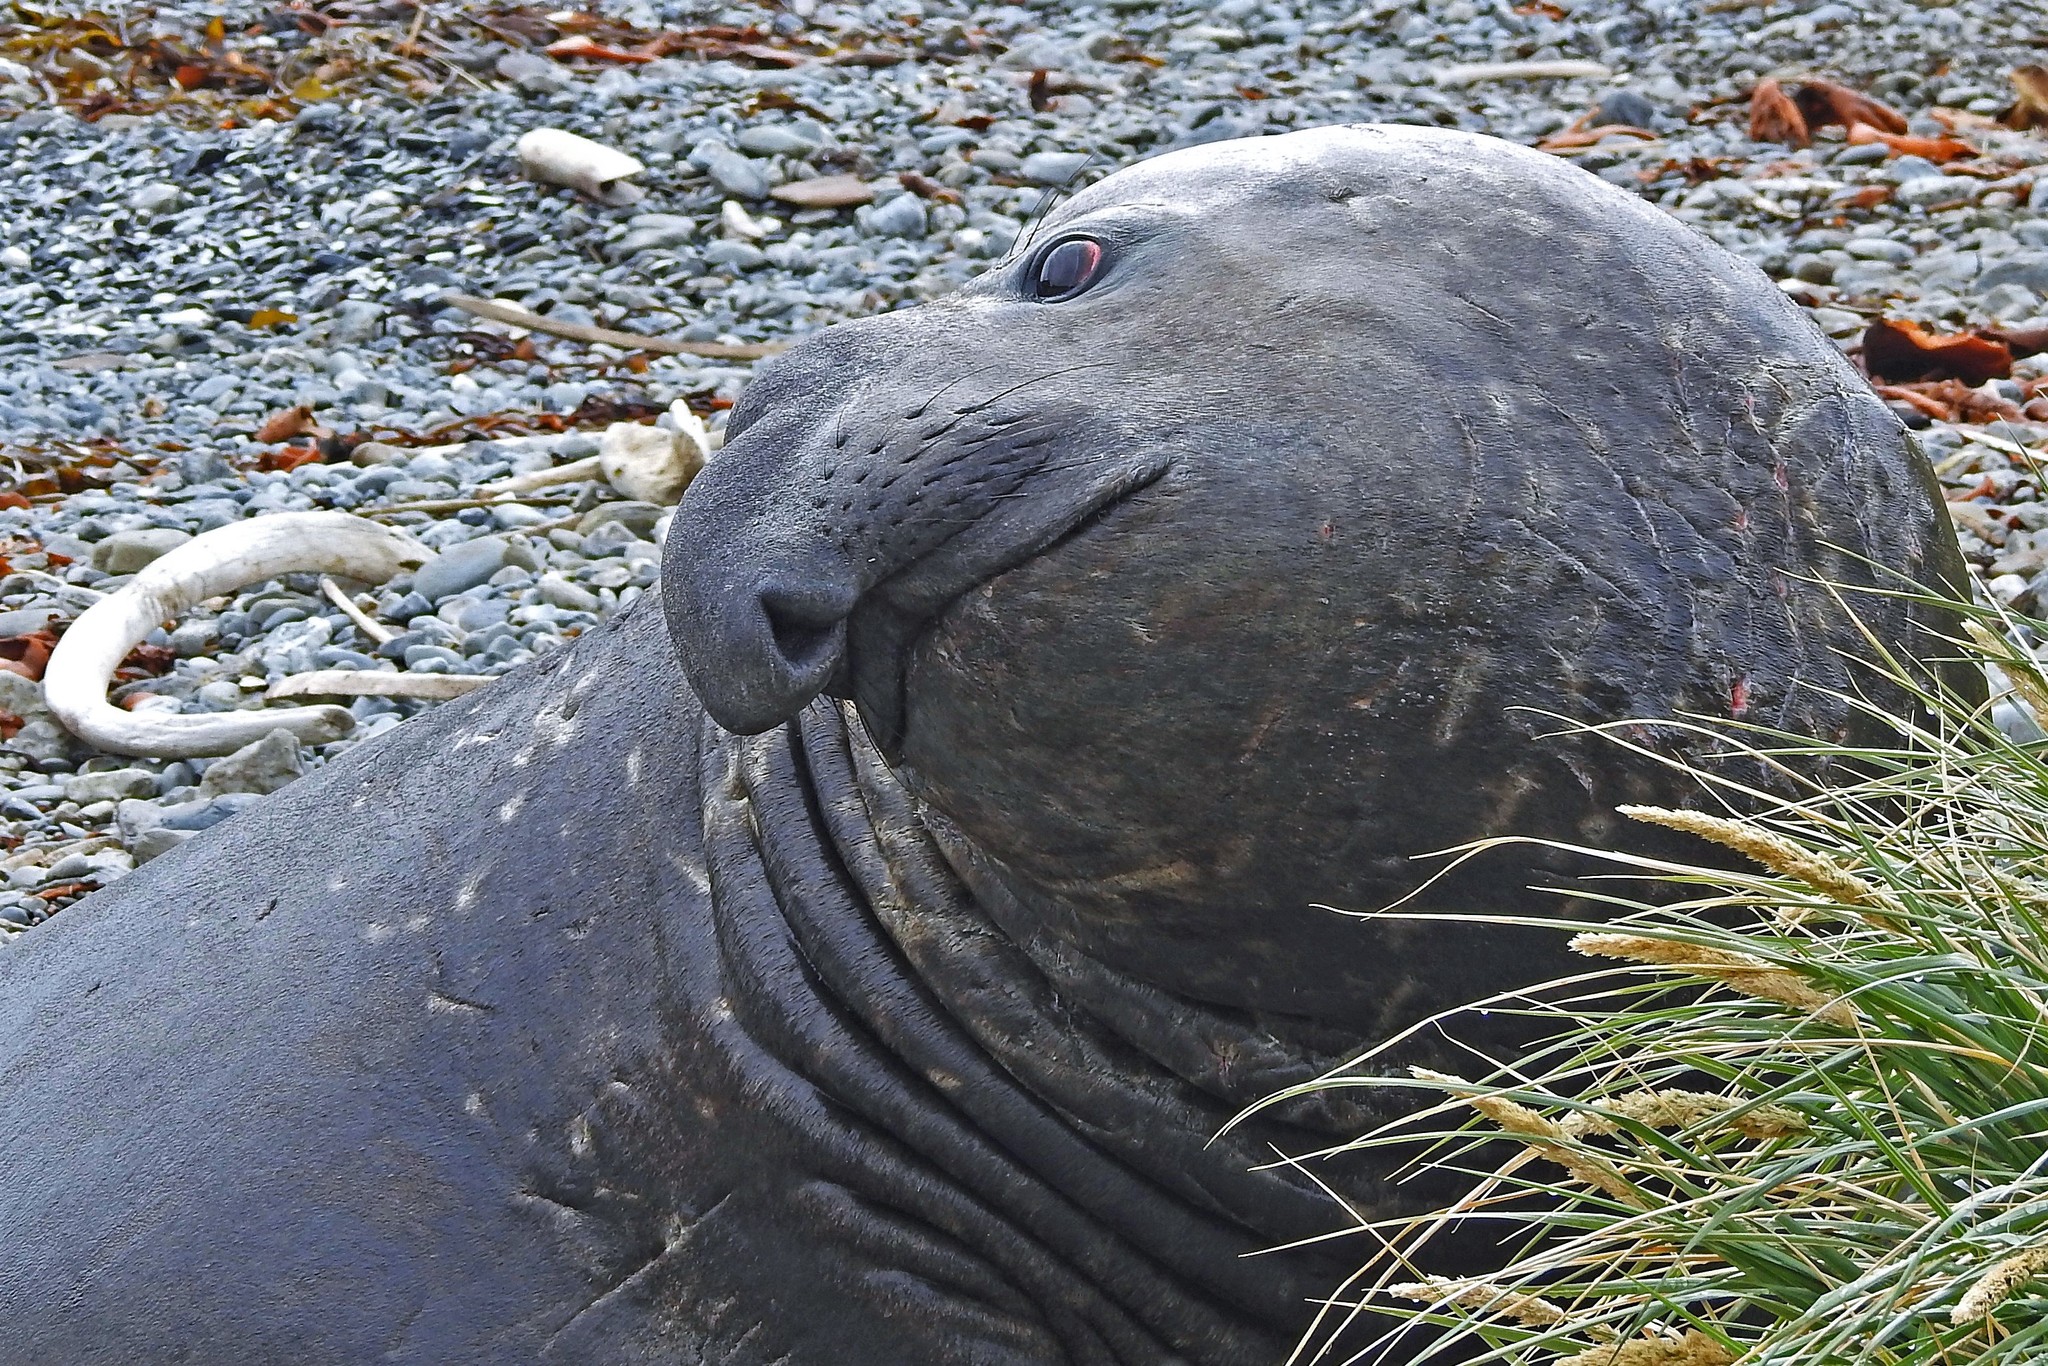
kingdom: Animalia
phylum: Chordata
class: Mammalia
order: Carnivora
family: Phocidae
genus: Mirounga
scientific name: Mirounga leonina
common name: Southern elephant seal
